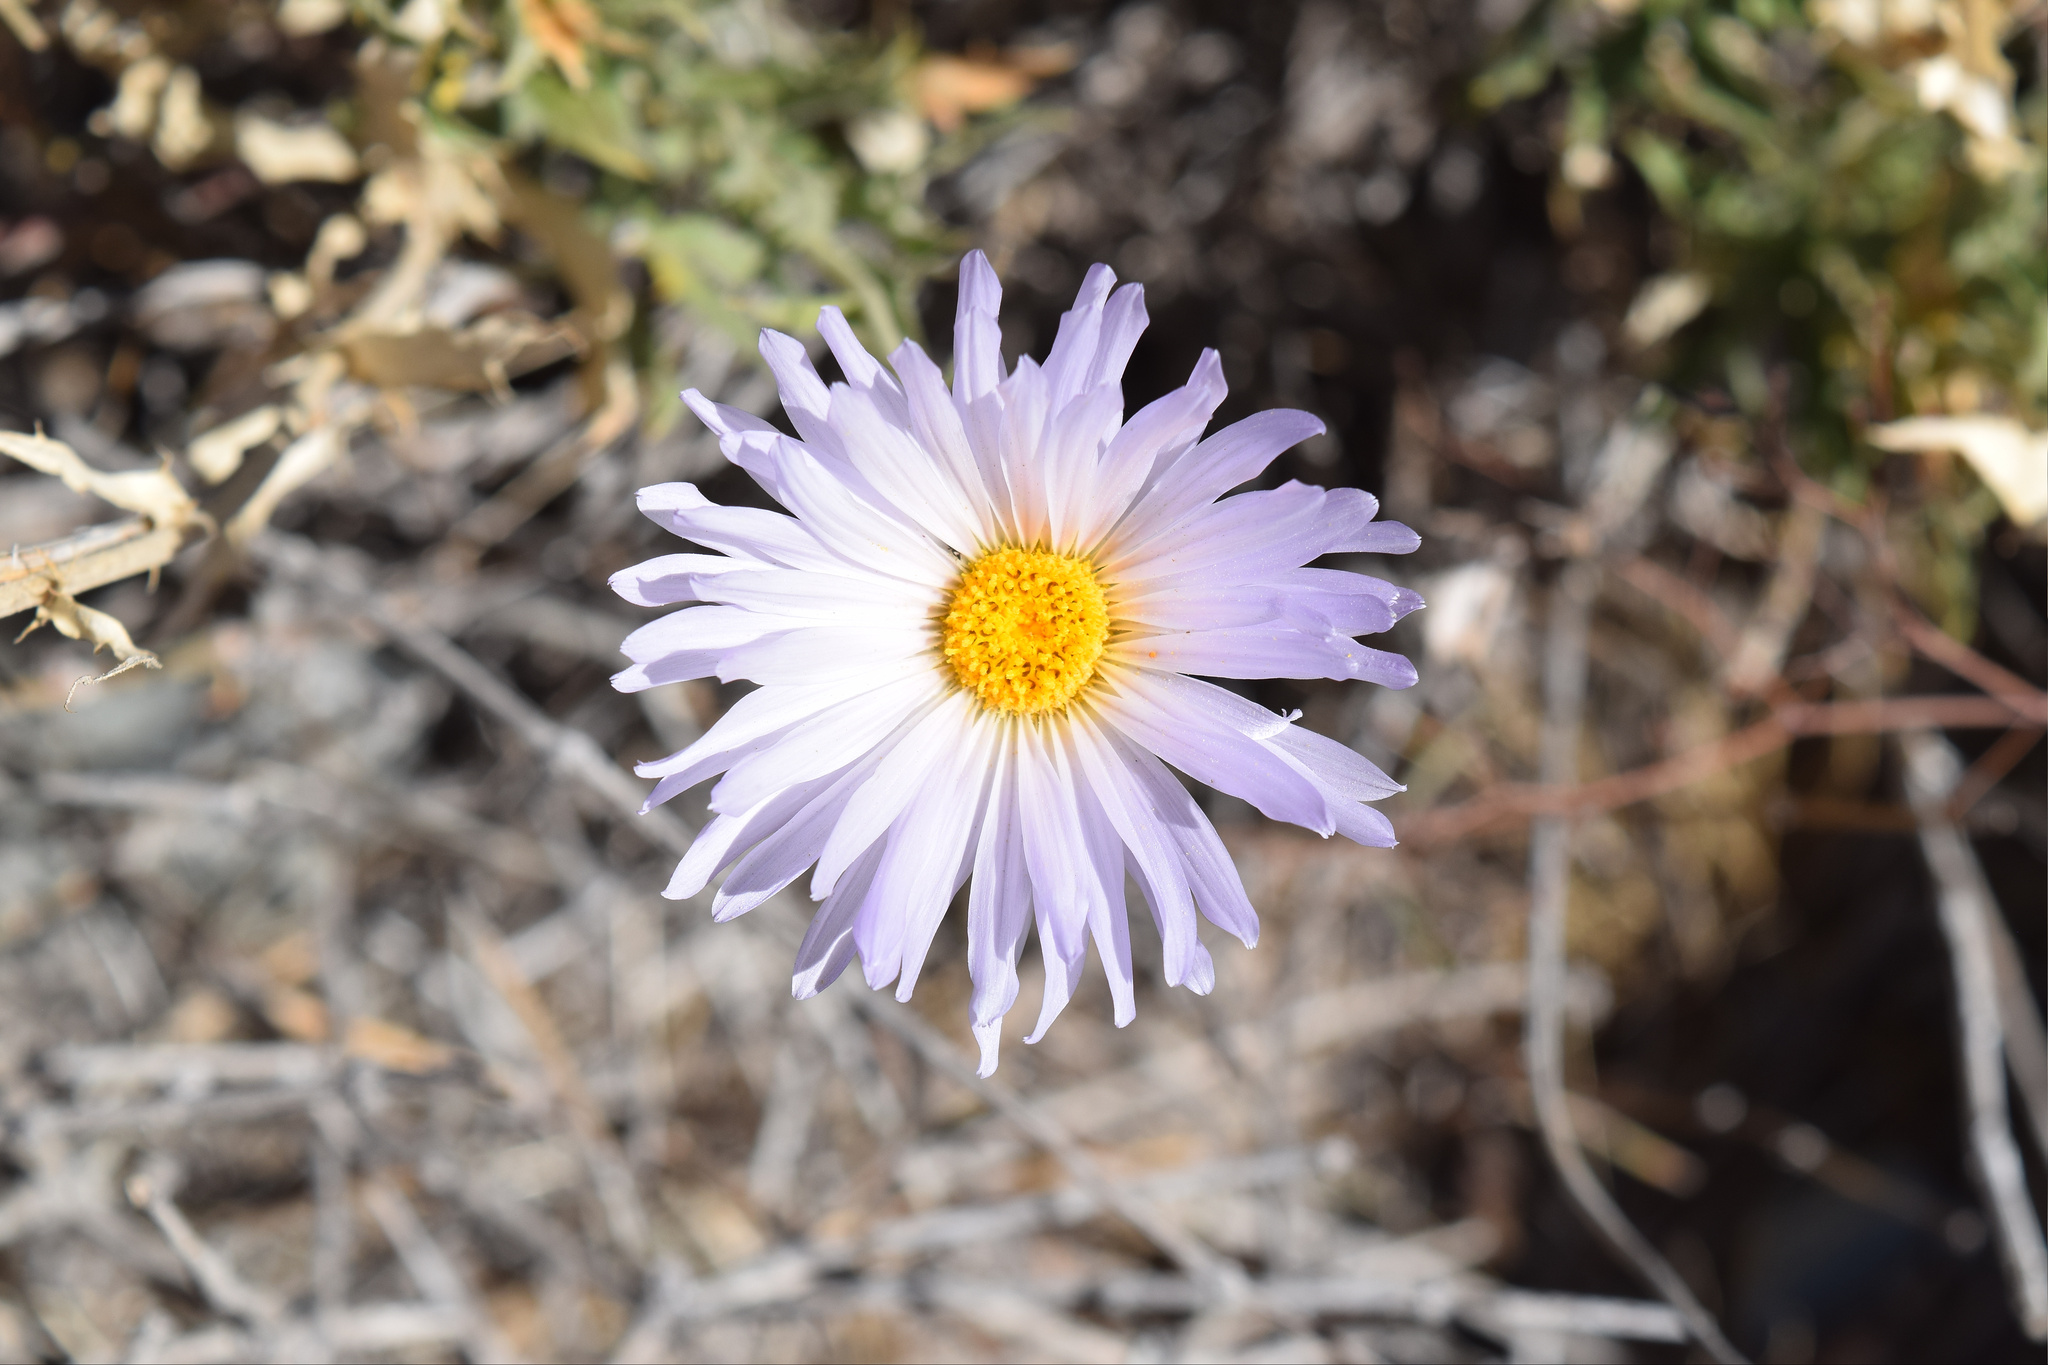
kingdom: Plantae
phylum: Tracheophyta
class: Magnoliopsida
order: Asterales
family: Asteraceae
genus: Xylorhiza
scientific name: Xylorhiza tortifolia
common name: Hurt-leaf woody-aster
